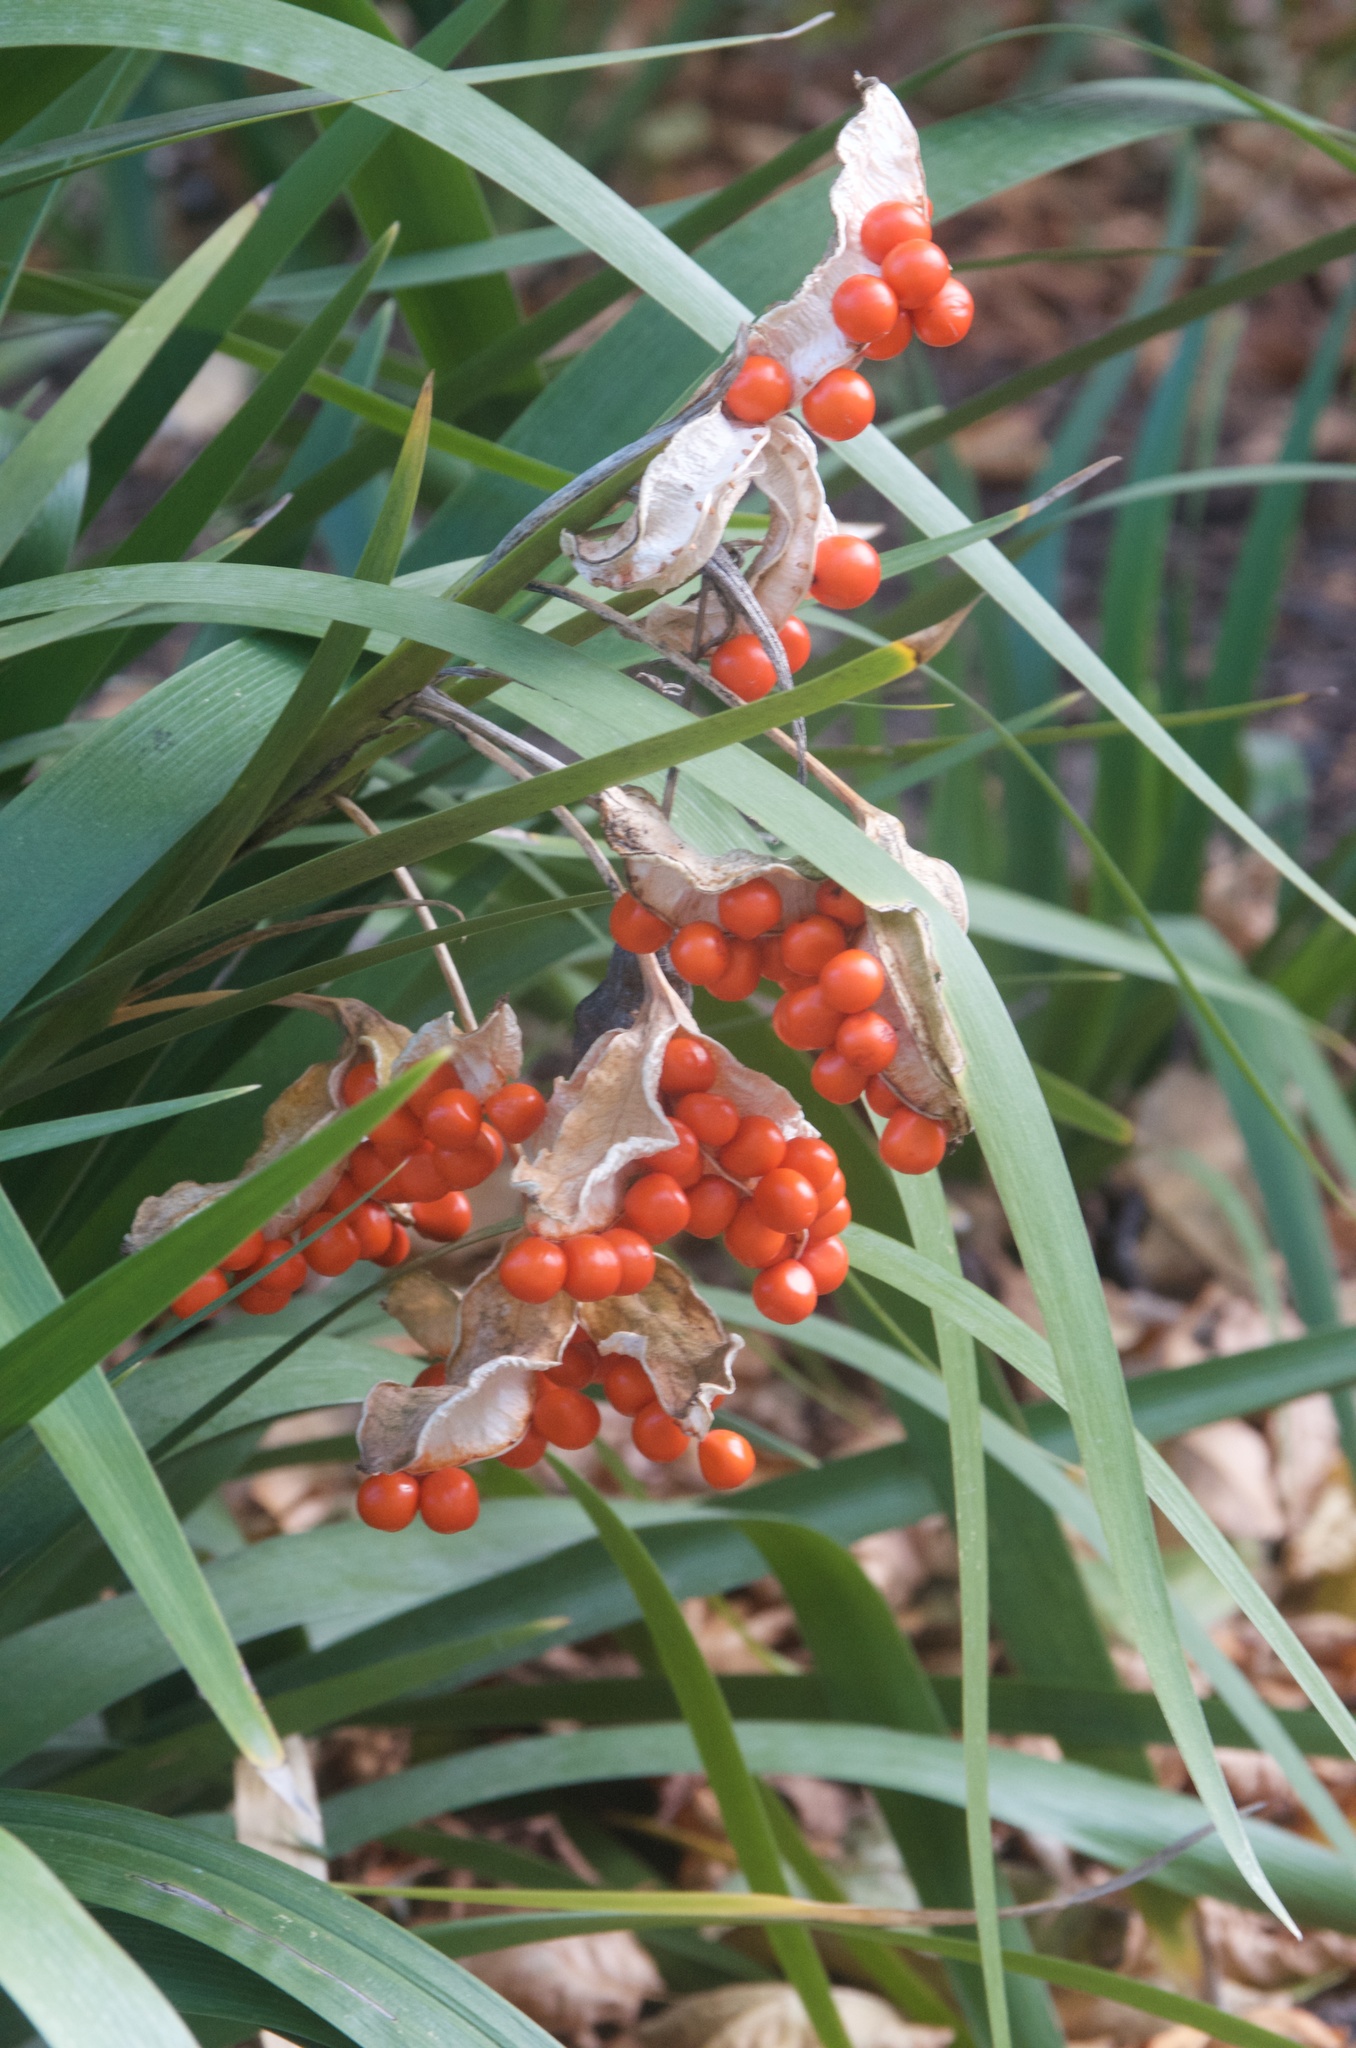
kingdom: Plantae
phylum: Tracheophyta
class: Liliopsida
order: Asparagales
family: Iridaceae
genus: Iris
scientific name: Iris foetidissima
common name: Stinking iris
